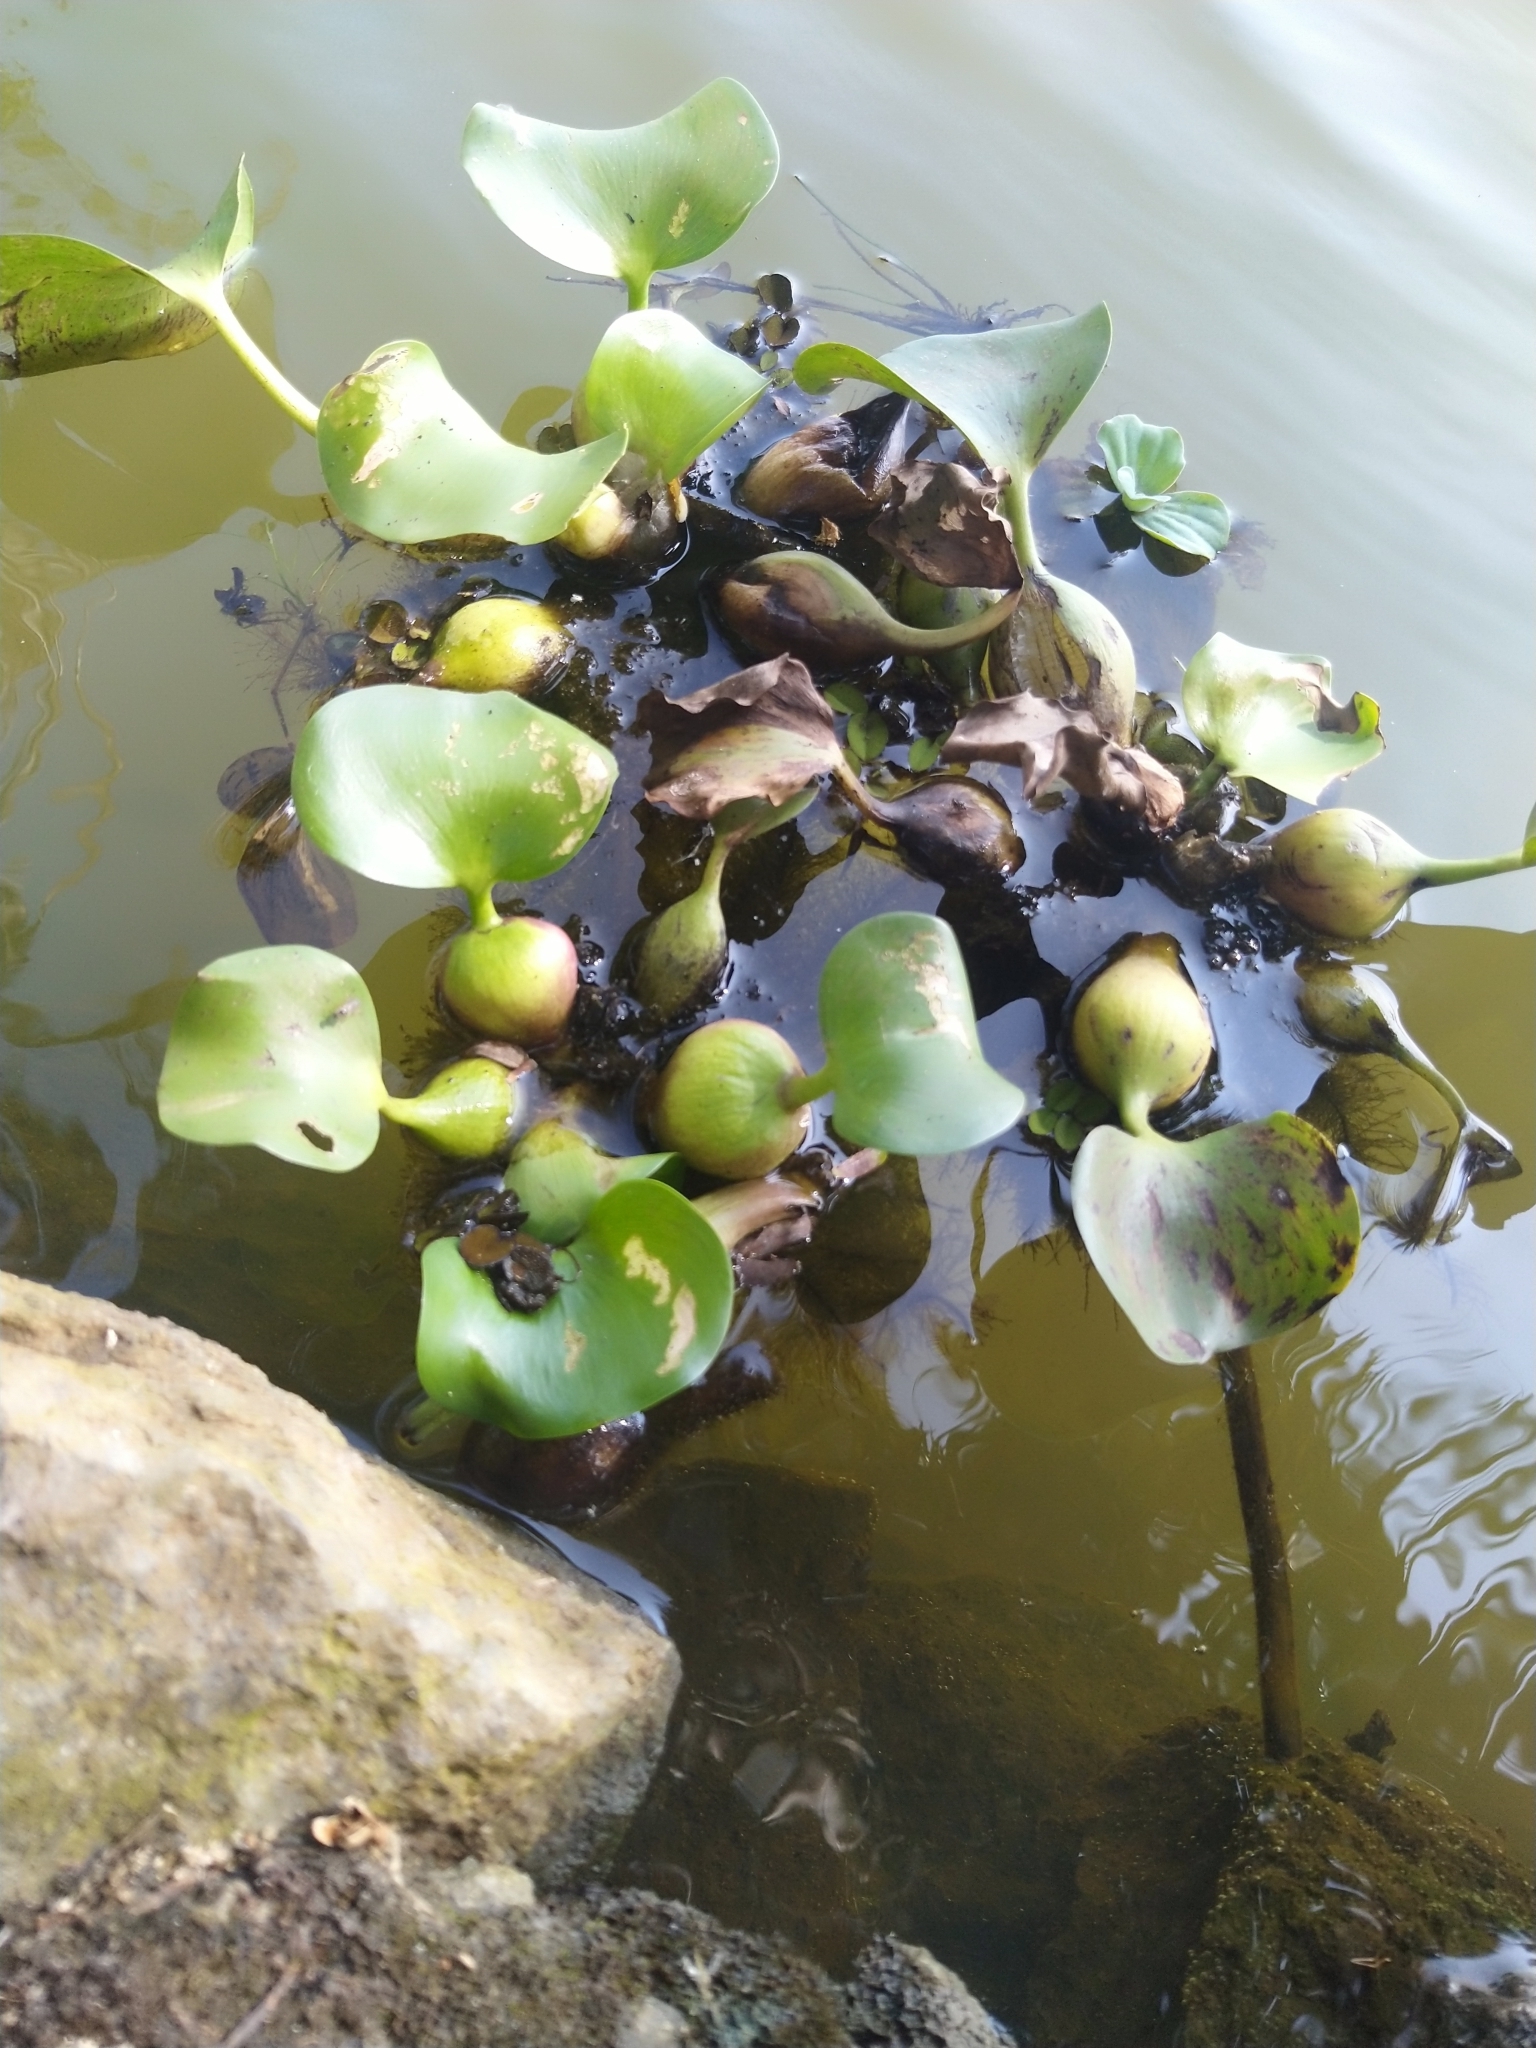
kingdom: Plantae
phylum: Tracheophyta
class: Liliopsida
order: Commelinales
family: Pontederiaceae
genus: Pontederia
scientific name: Pontederia crassipes
